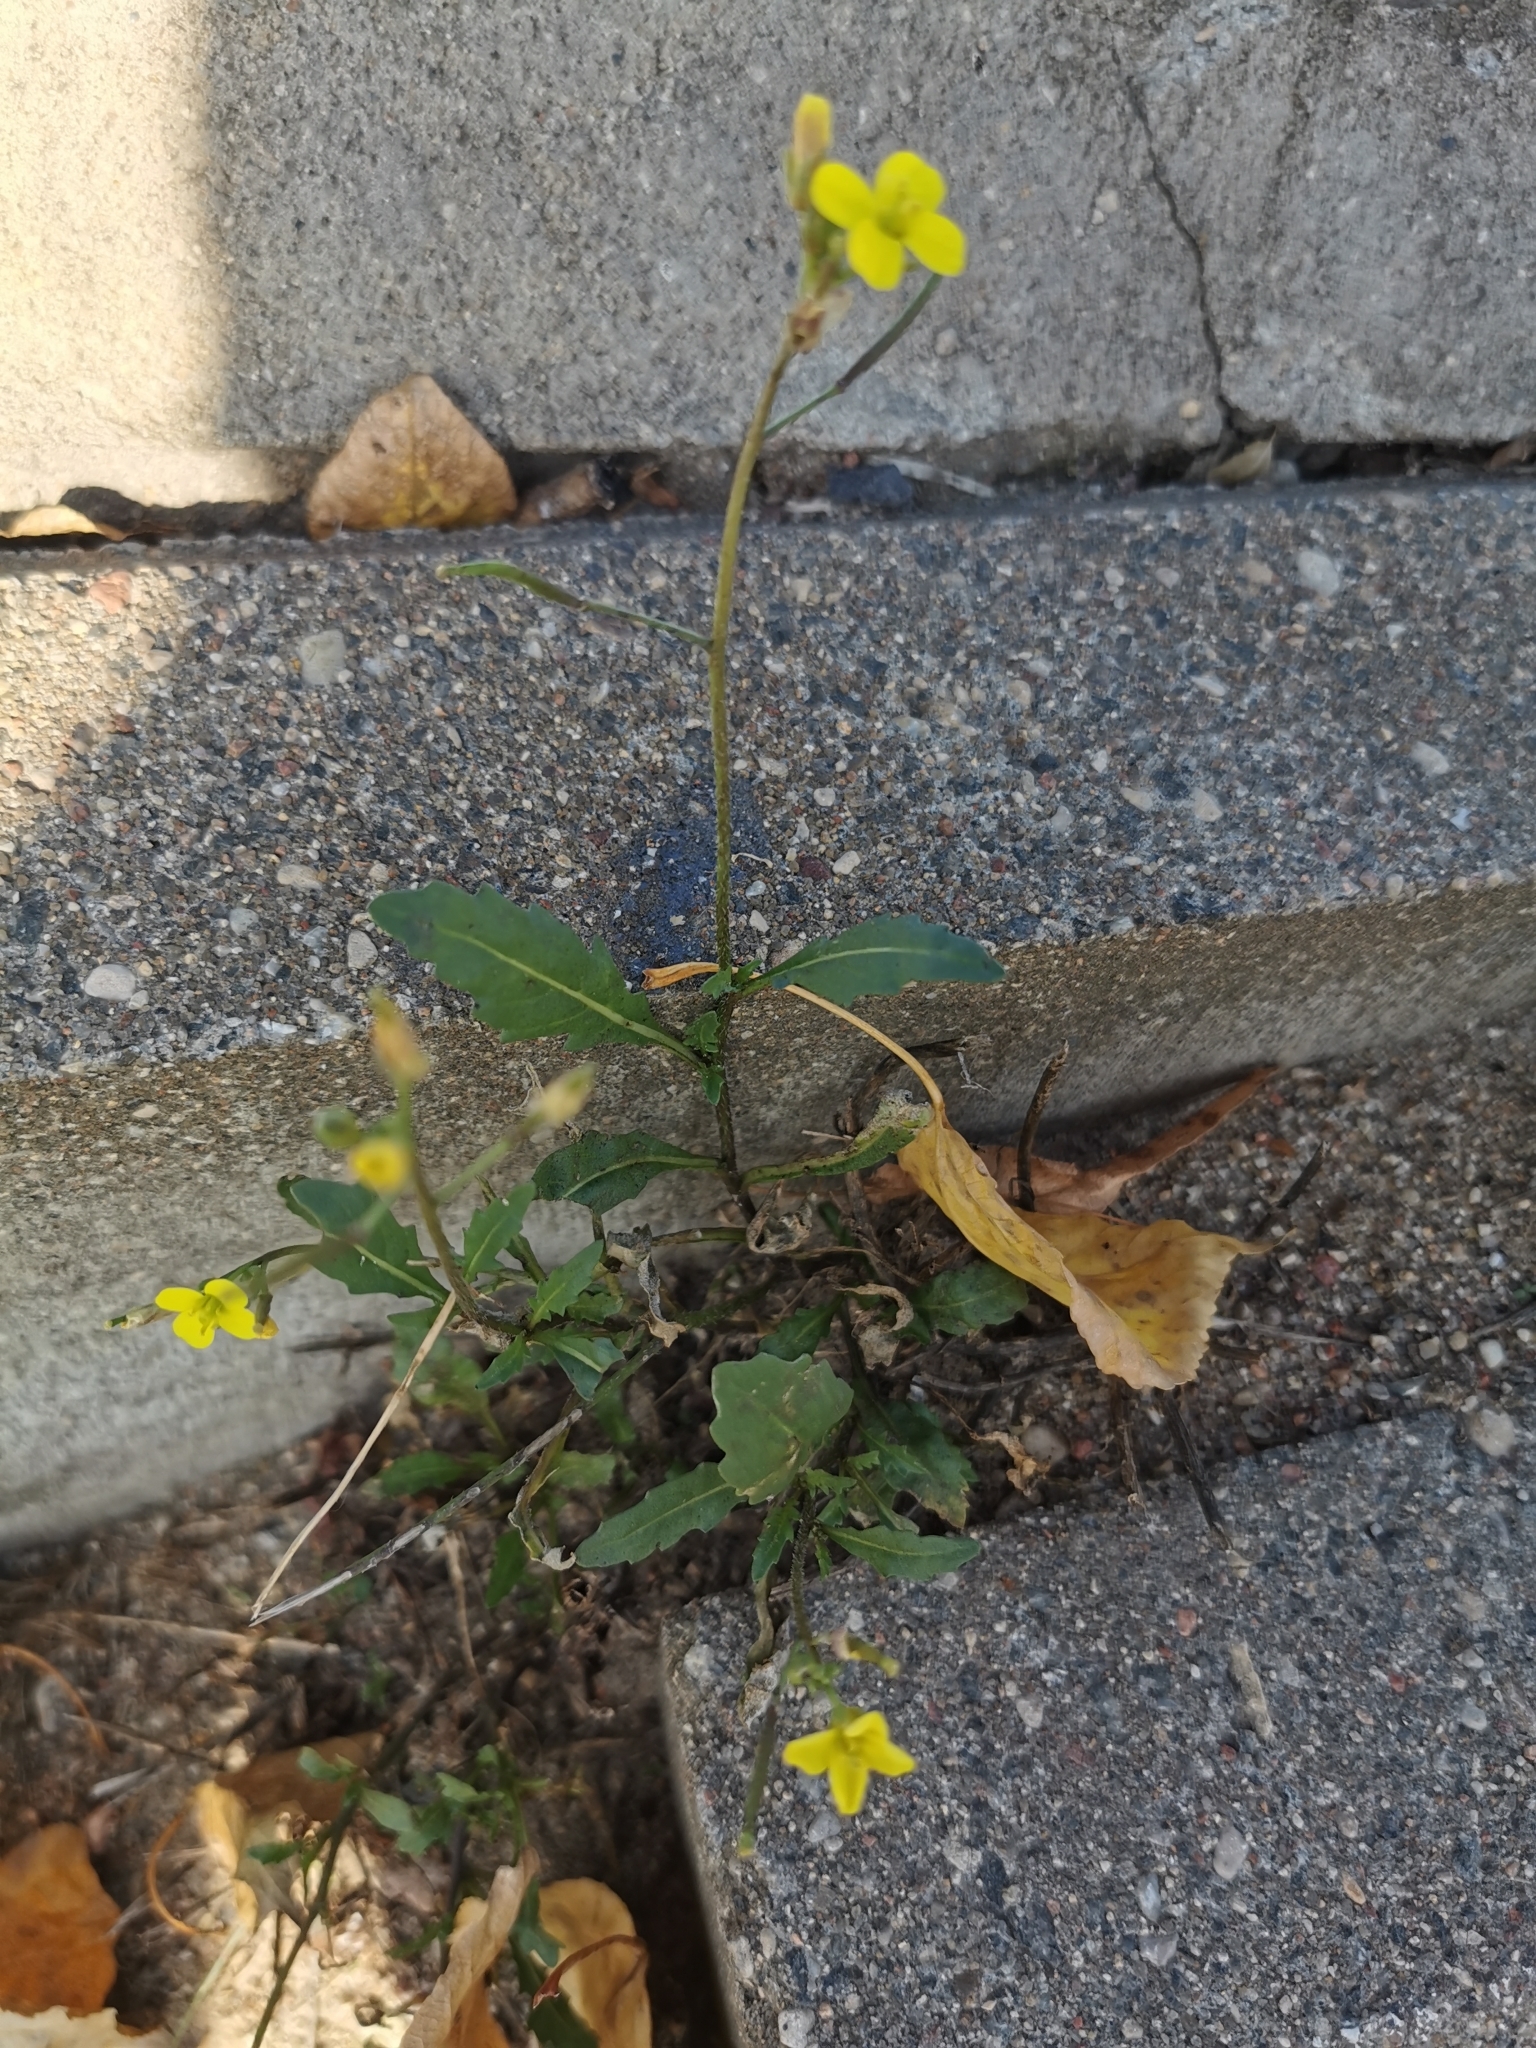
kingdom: Plantae
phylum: Tracheophyta
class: Magnoliopsida
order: Brassicales
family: Brassicaceae
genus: Diplotaxis
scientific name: Diplotaxis muralis
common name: Annual wall-rocket
